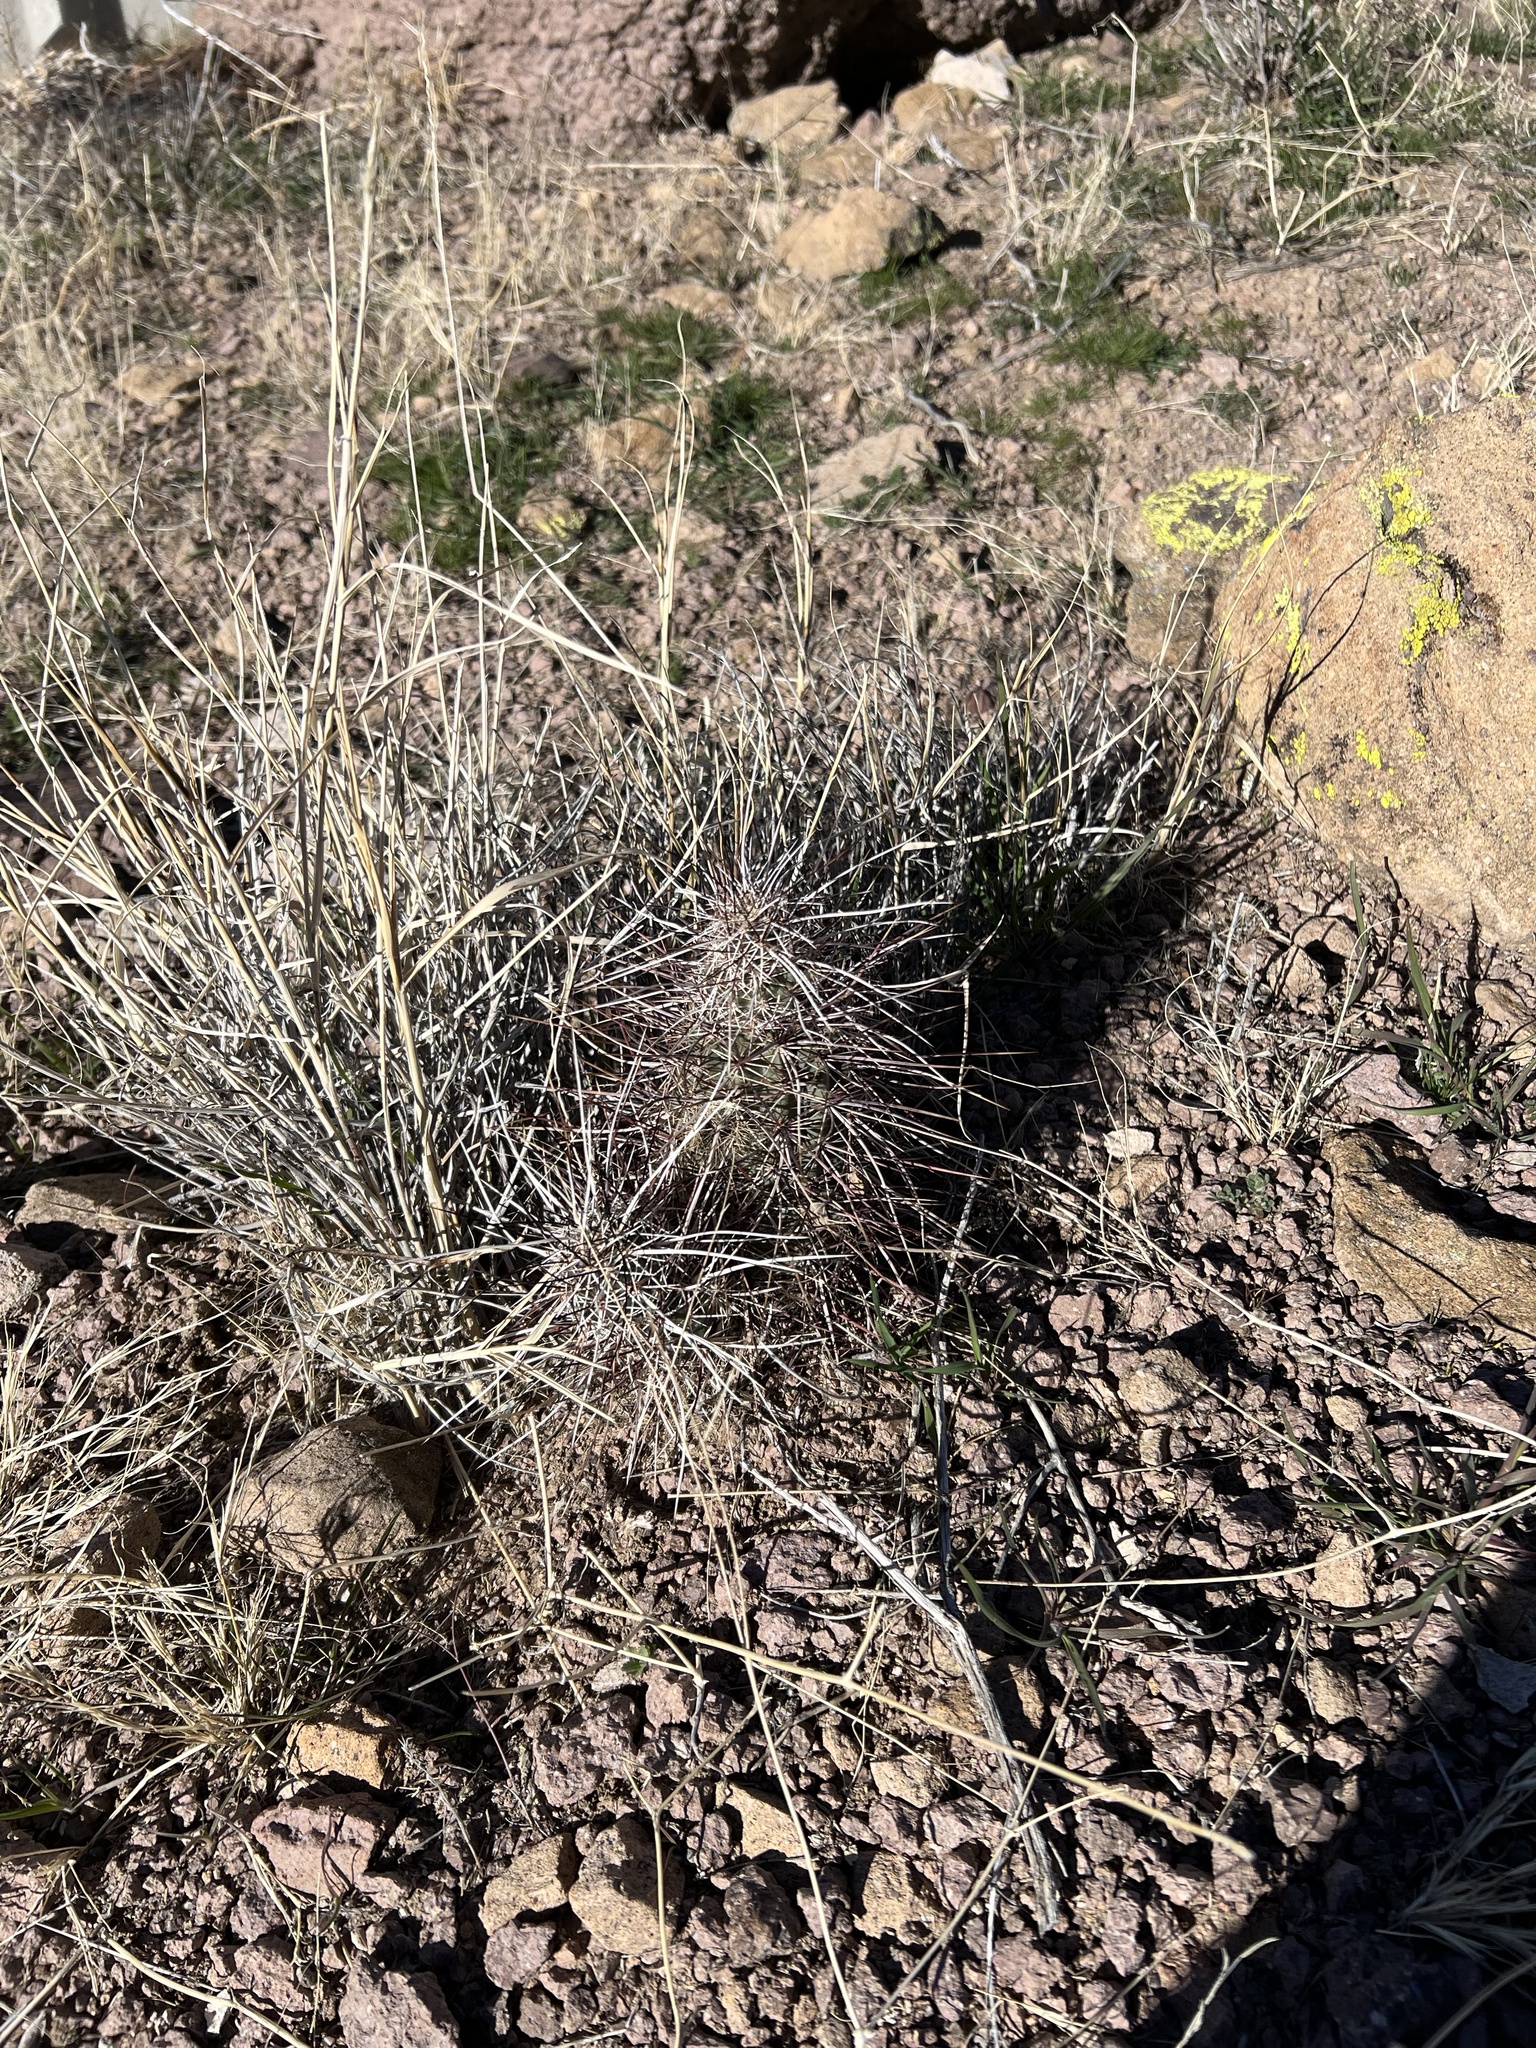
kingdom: Plantae
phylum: Tracheophyta
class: Magnoliopsida
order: Caryophyllales
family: Cactaceae
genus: Echinocereus
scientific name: Echinocereus engelmannii
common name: Engelmann's hedgehog cactus
